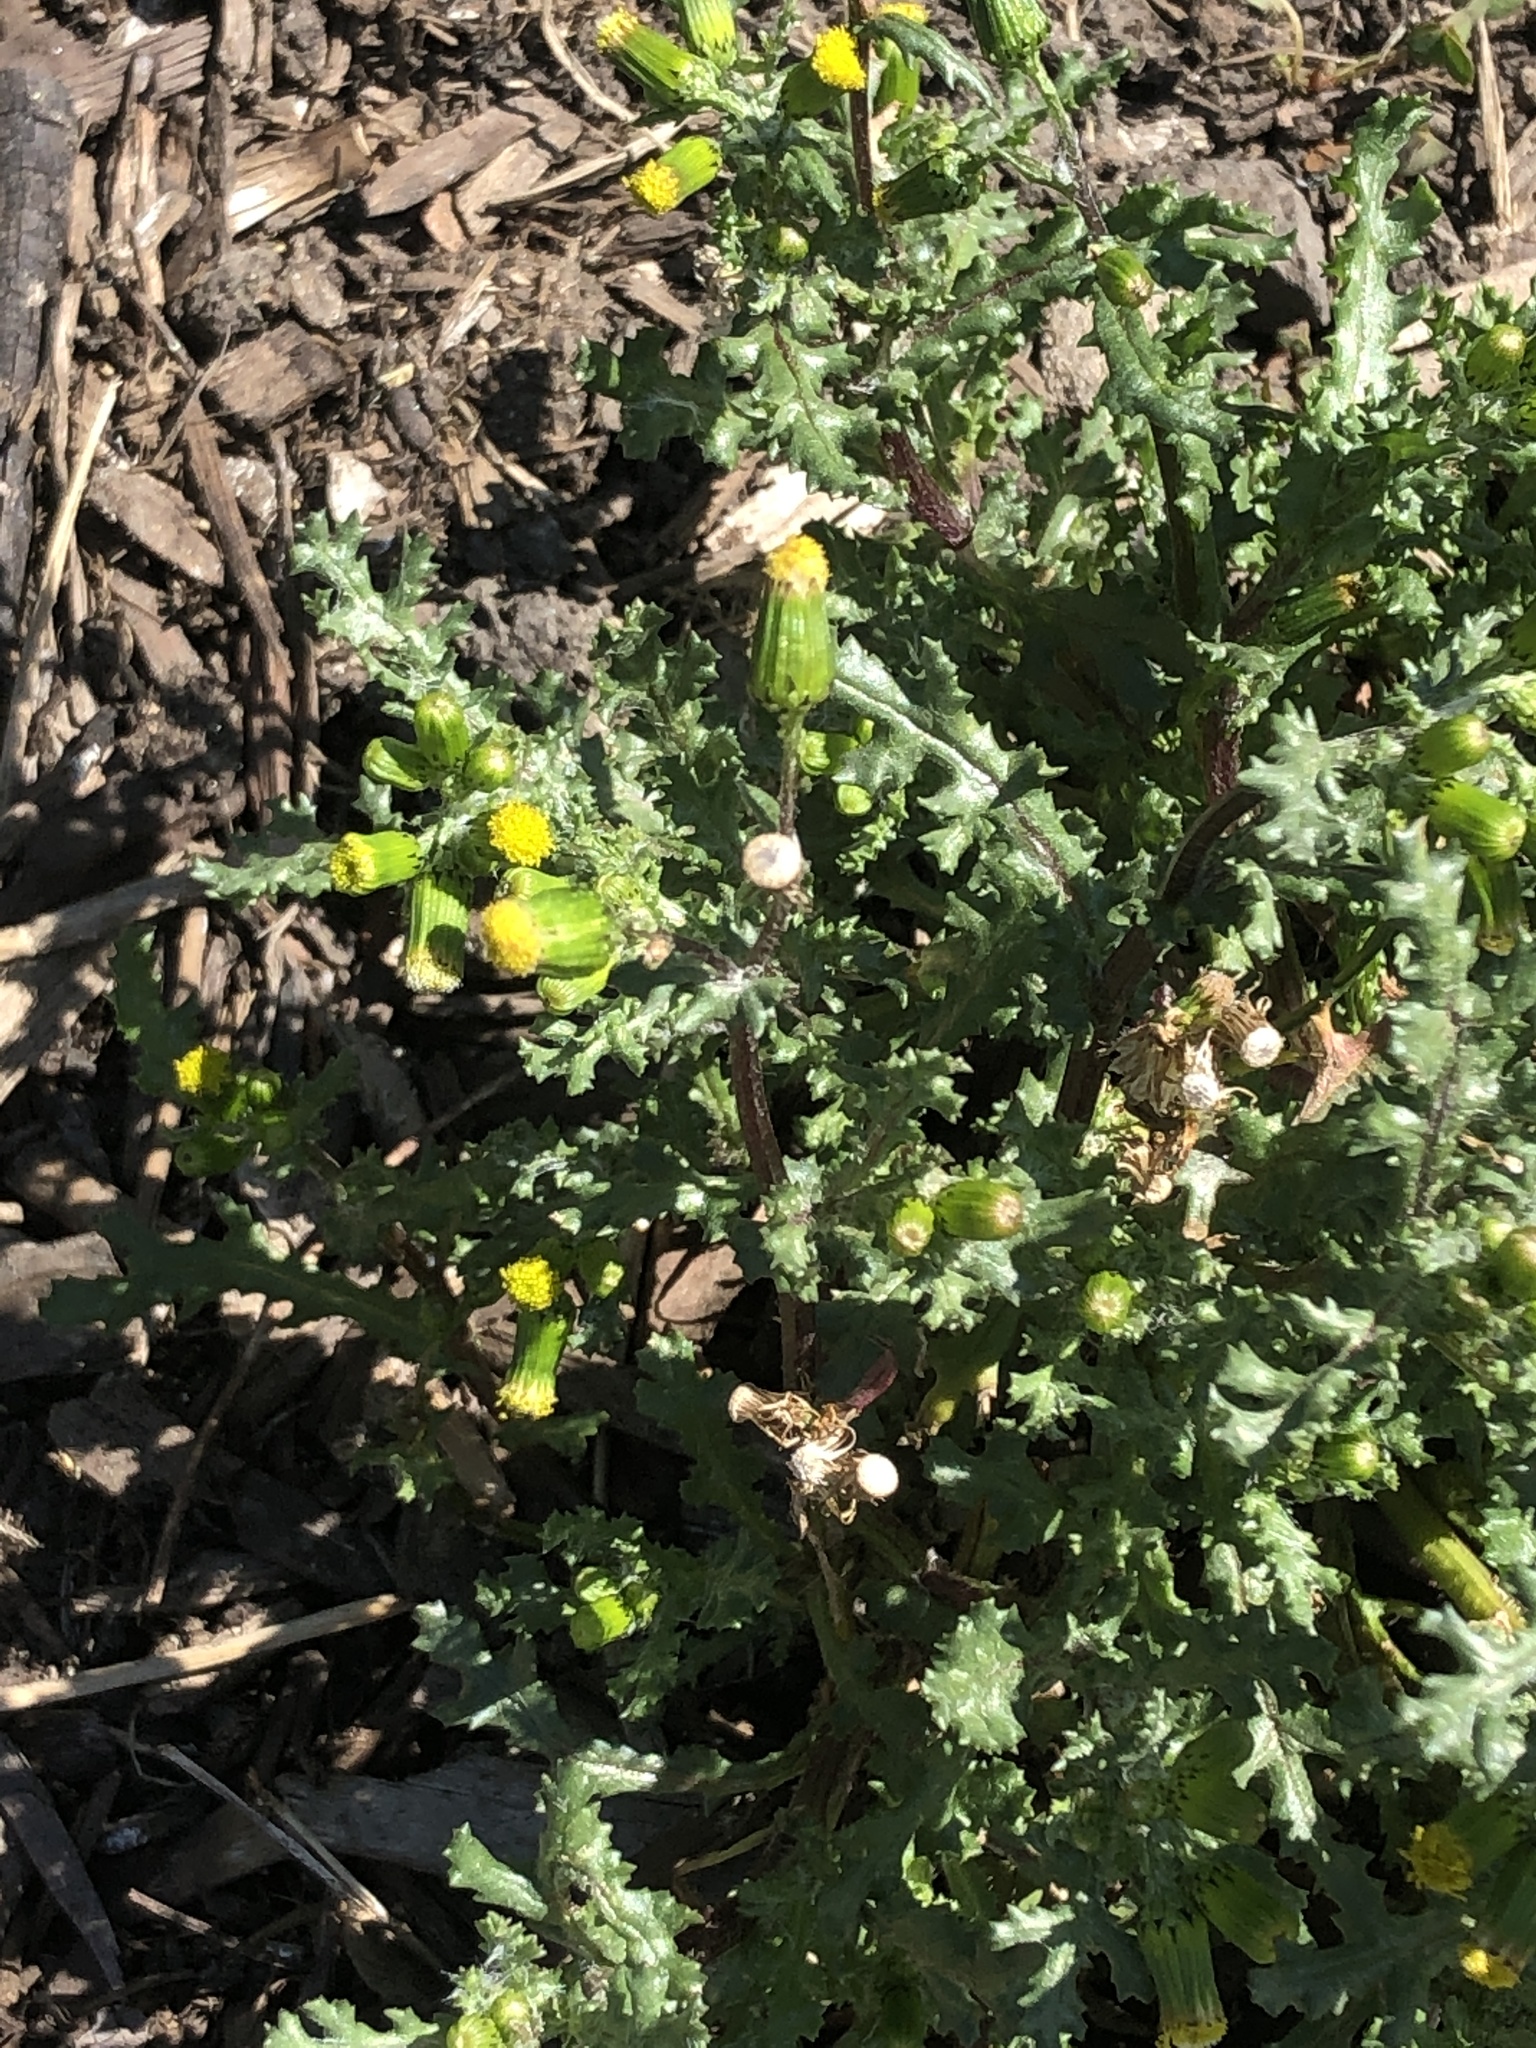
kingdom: Plantae
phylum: Tracheophyta
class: Magnoliopsida
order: Asterales
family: Asteraceae
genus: Senecio
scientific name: Senecio vulgaris
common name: Old-man-in-the-spring
